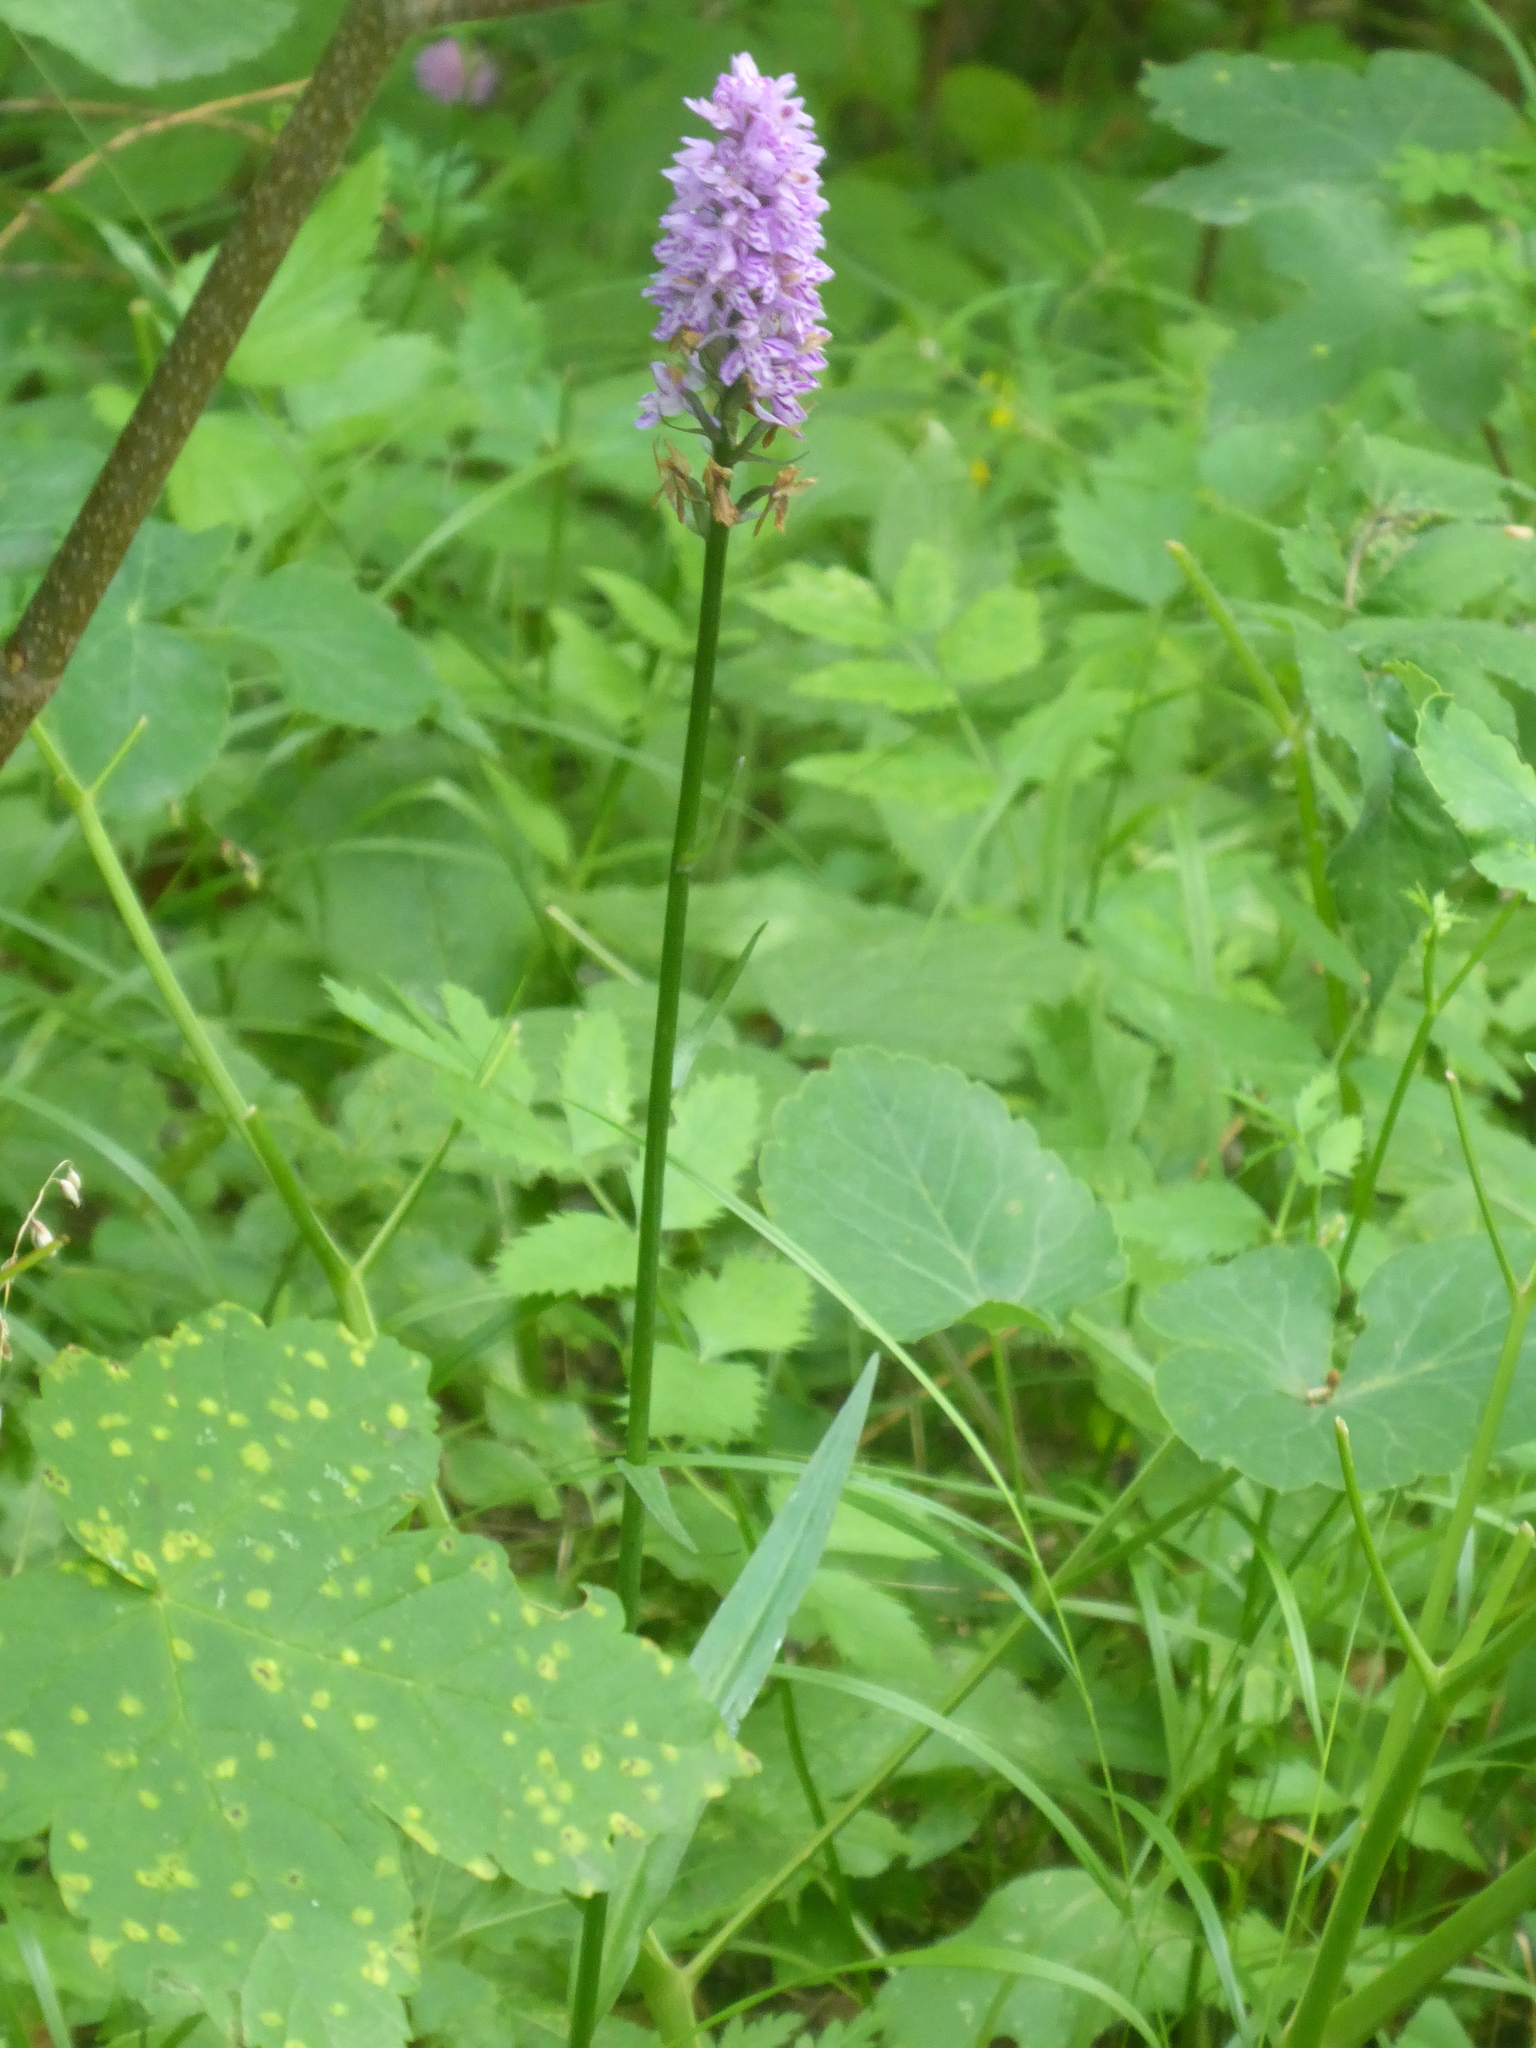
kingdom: Plantae
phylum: Tracheophyta
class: Liliopsida
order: Asparagales
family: Orchidaceae
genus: Dactylorhiza
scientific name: Dactylorhiza maculata
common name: Heath spotted-orchid
